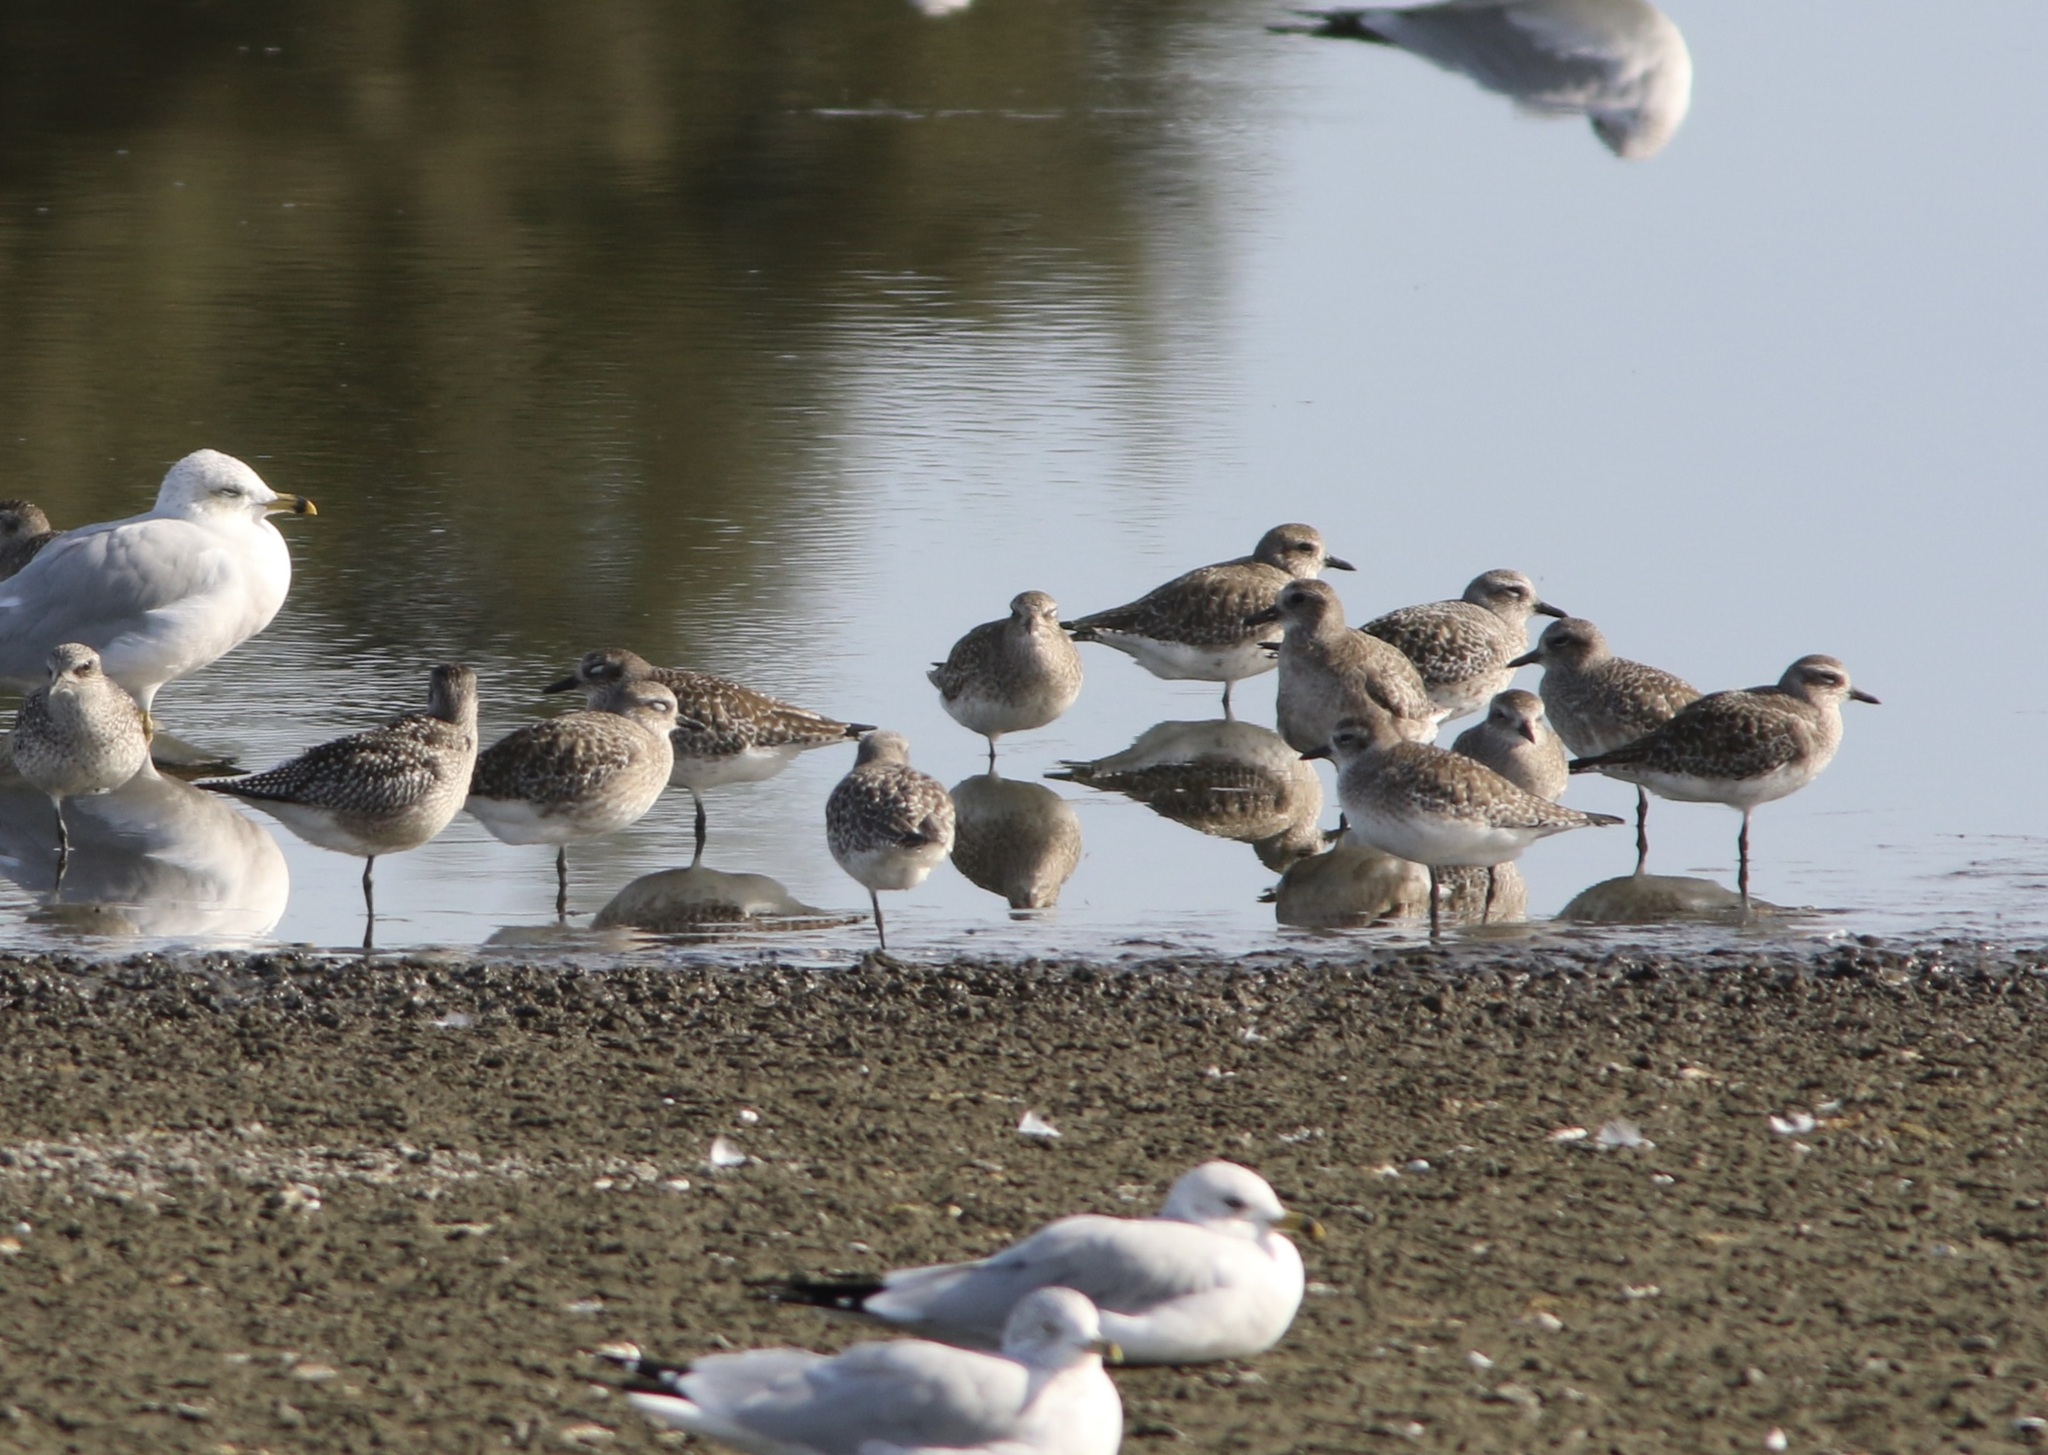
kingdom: Animalia
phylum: Chordata
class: Aves
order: Charadriiformes
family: Charadriidae
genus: Pluvialis
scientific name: Pluvialis squatarola
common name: Grey plover
